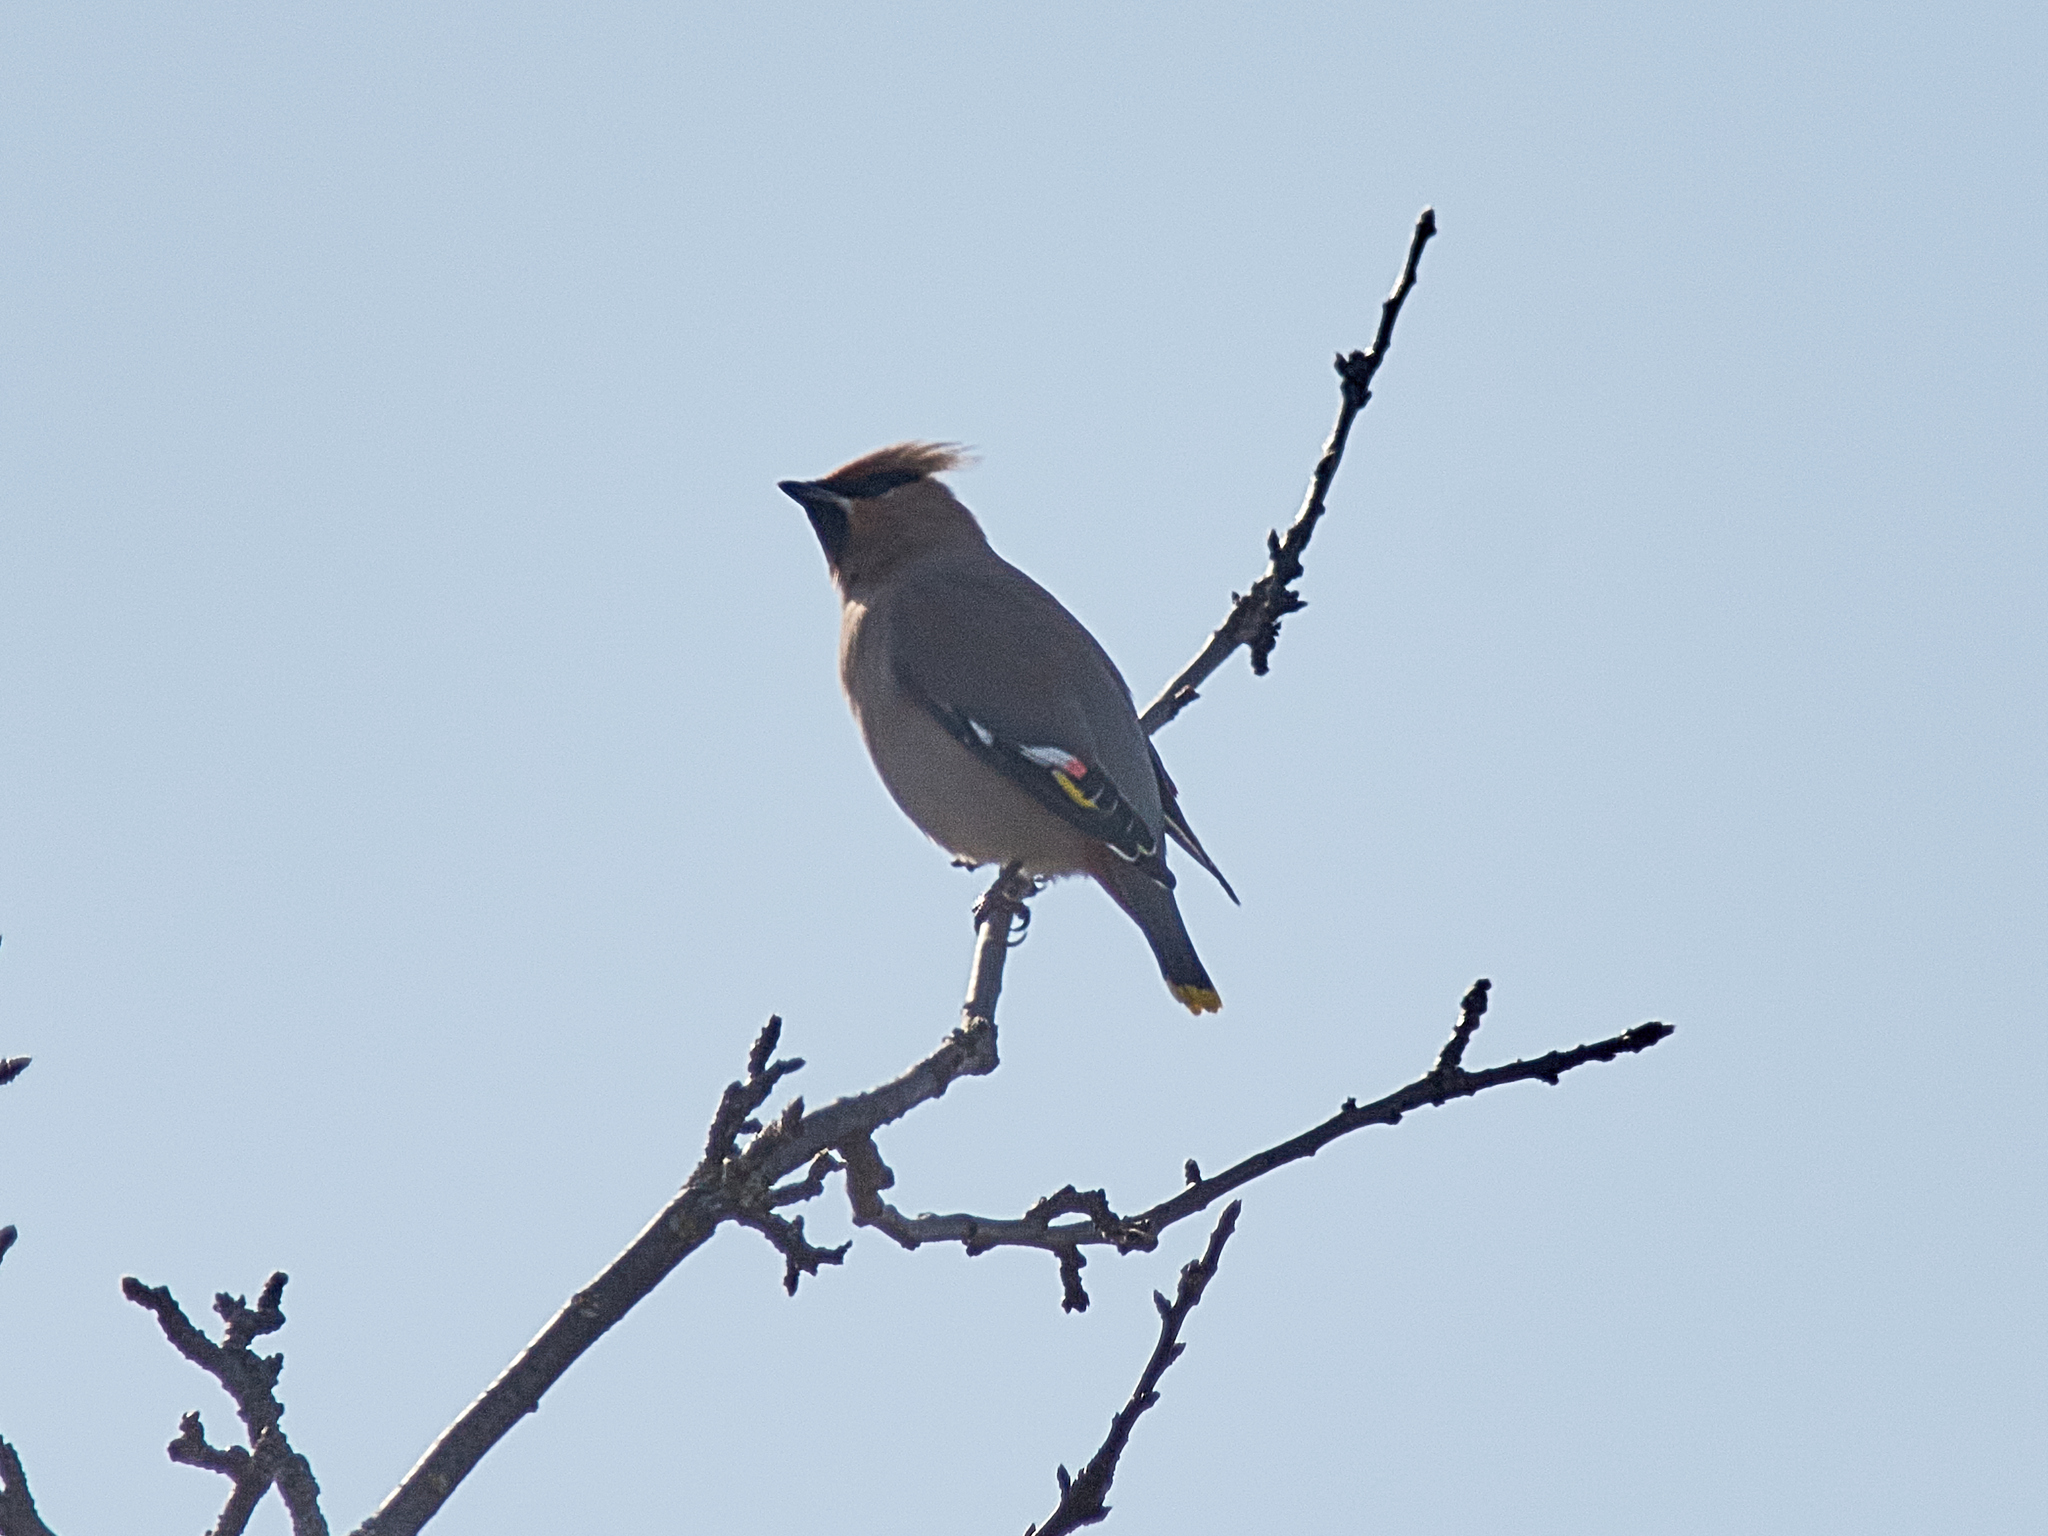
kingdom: Animalia
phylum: Chordata
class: Aves
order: Passeriformes
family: Bombycillidae
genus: Bombycilla
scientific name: Bombycilla garrulus
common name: Bohemian waxwing
